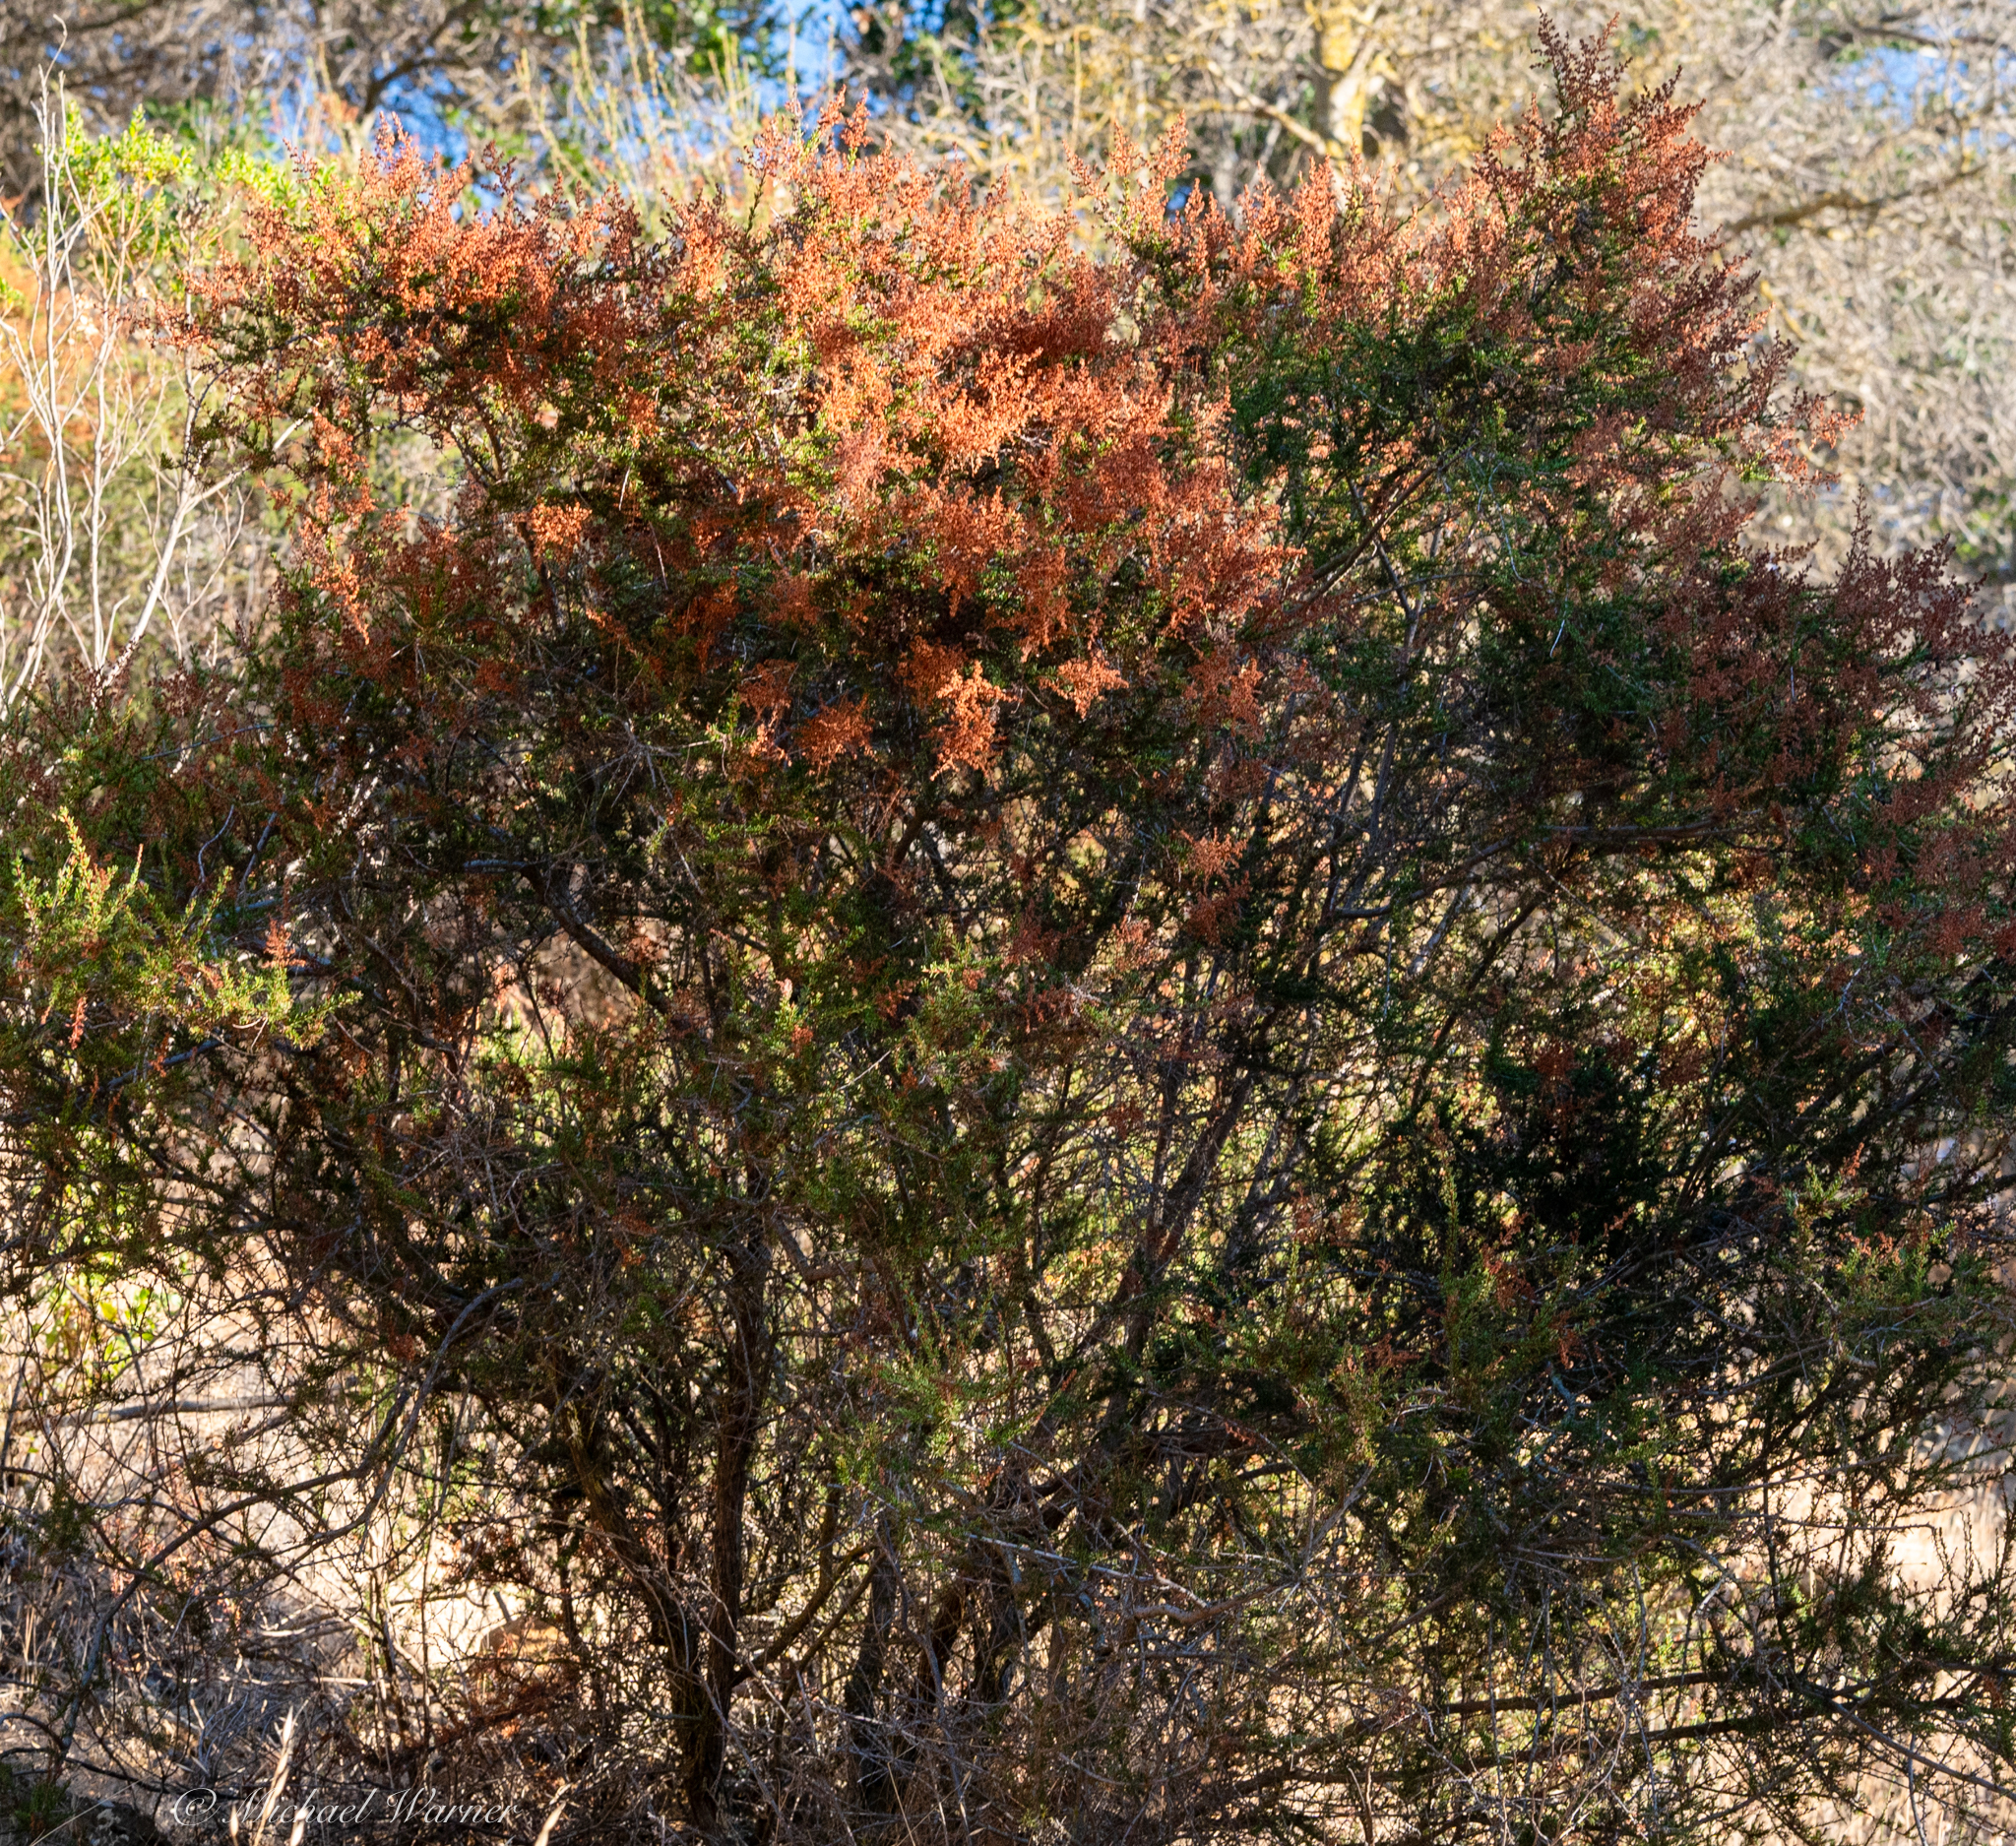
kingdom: Plantae
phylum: Tracheophyta
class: Magnoliopsida
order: Rosales
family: Rosaceae
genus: Adenostoma
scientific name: Adenostoma fasciculatum
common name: Chamise
